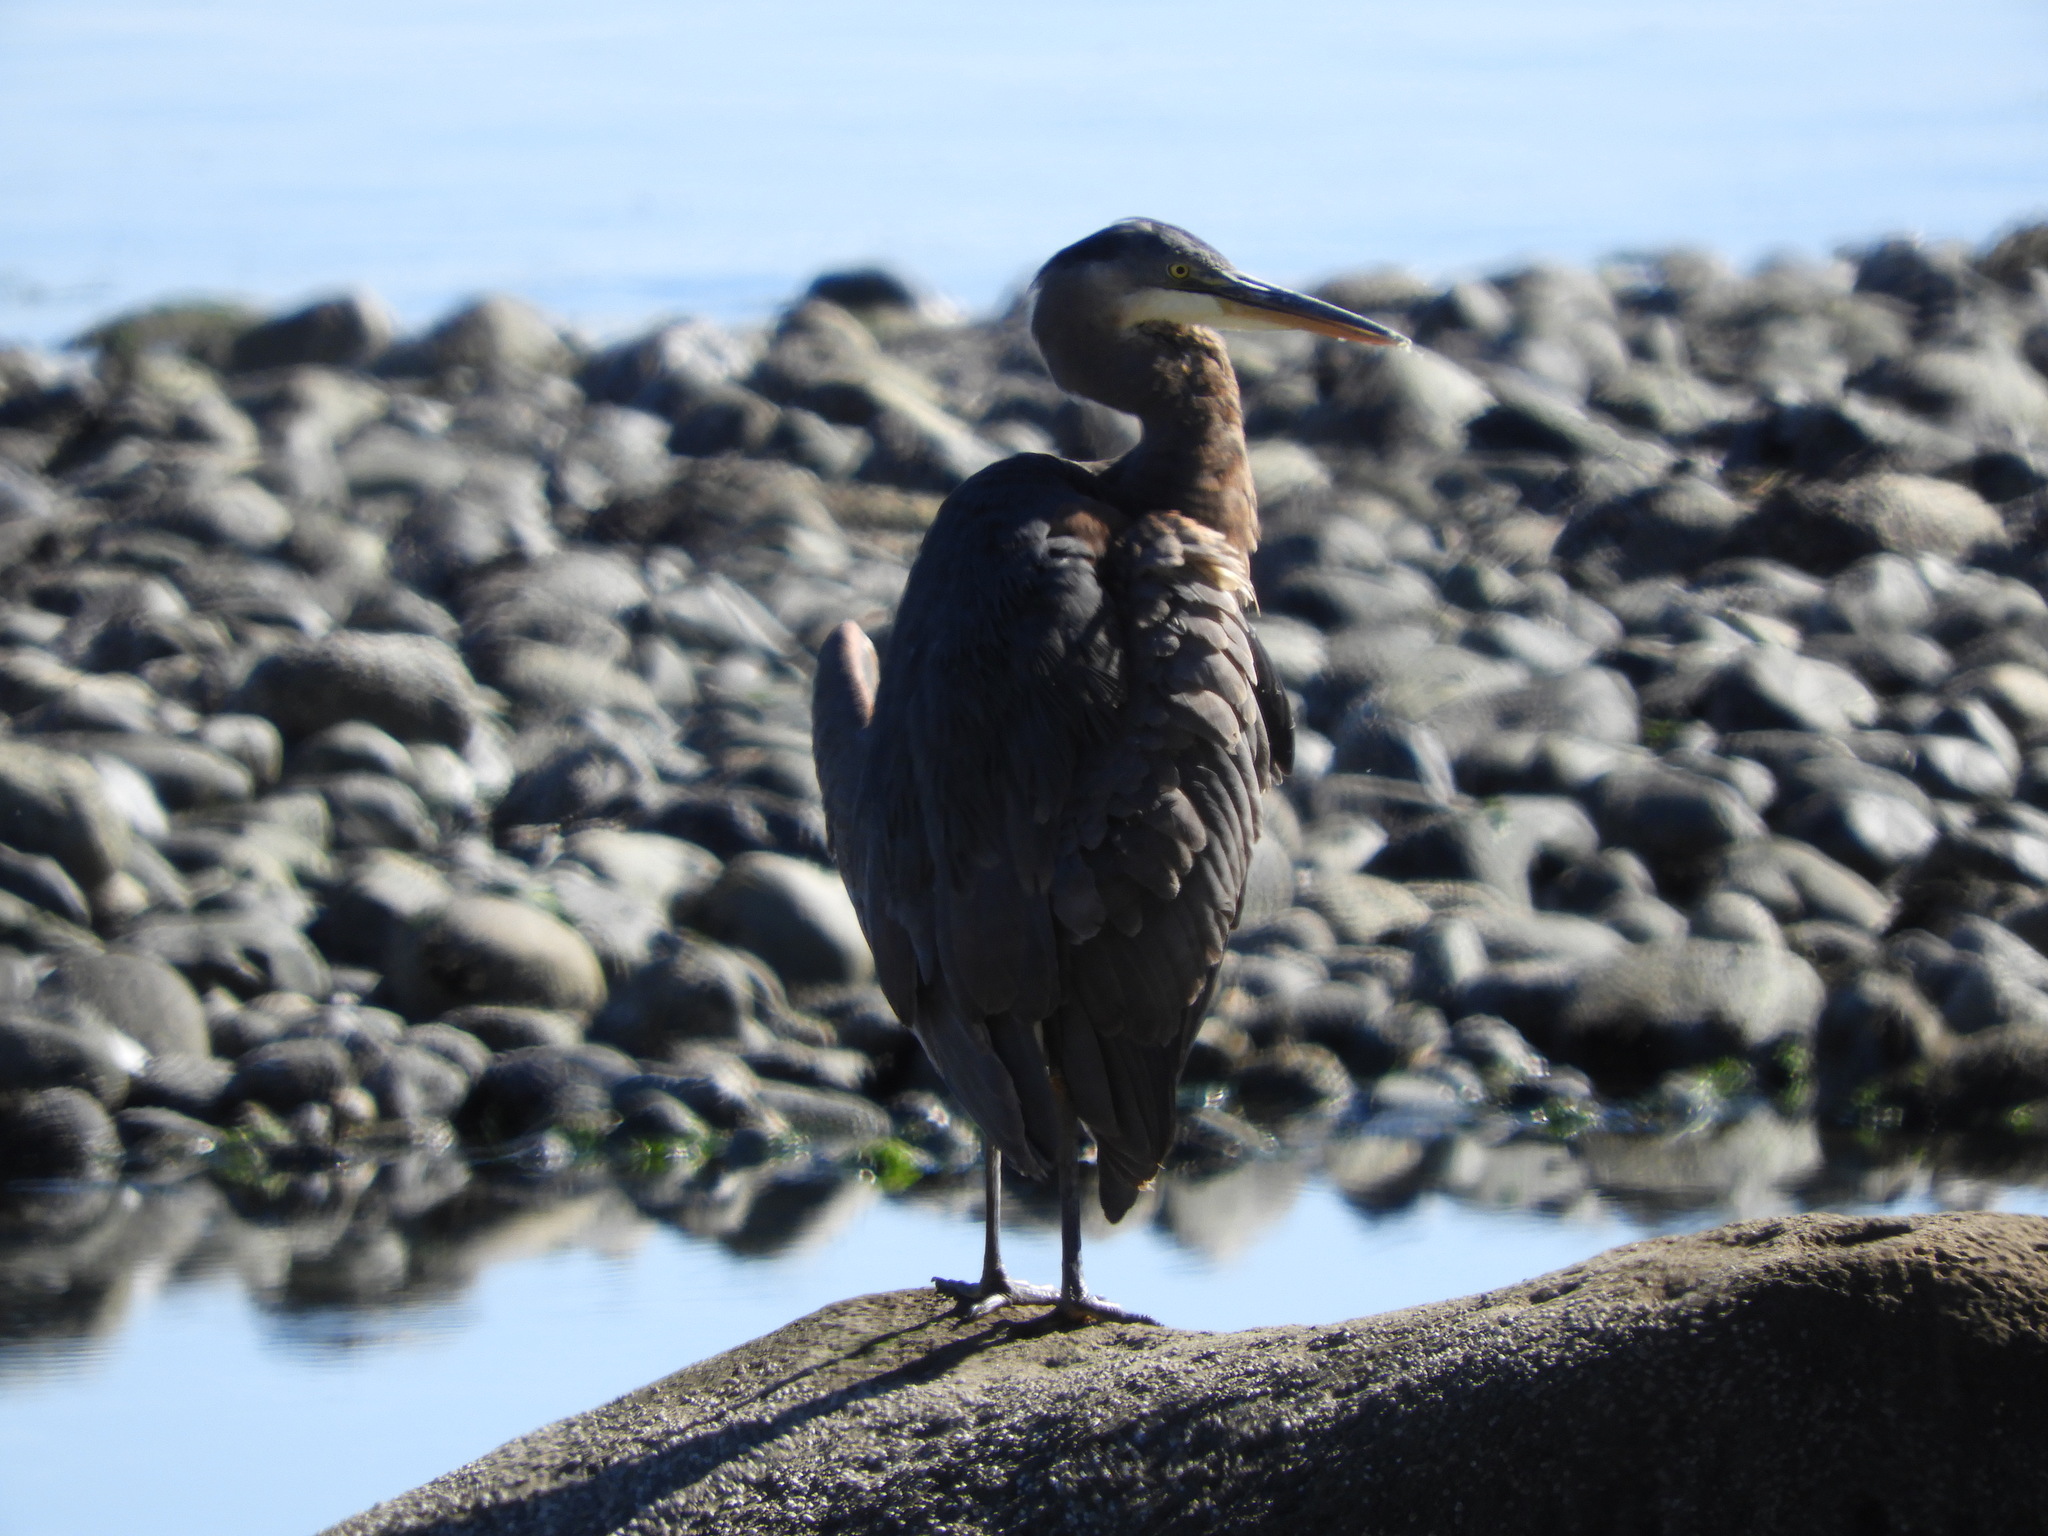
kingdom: Animalia
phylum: Chordata
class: Aves
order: Pelecaniformes
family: Ardeidae
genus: Ardea
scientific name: Ardea herodias
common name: Great blue heron
